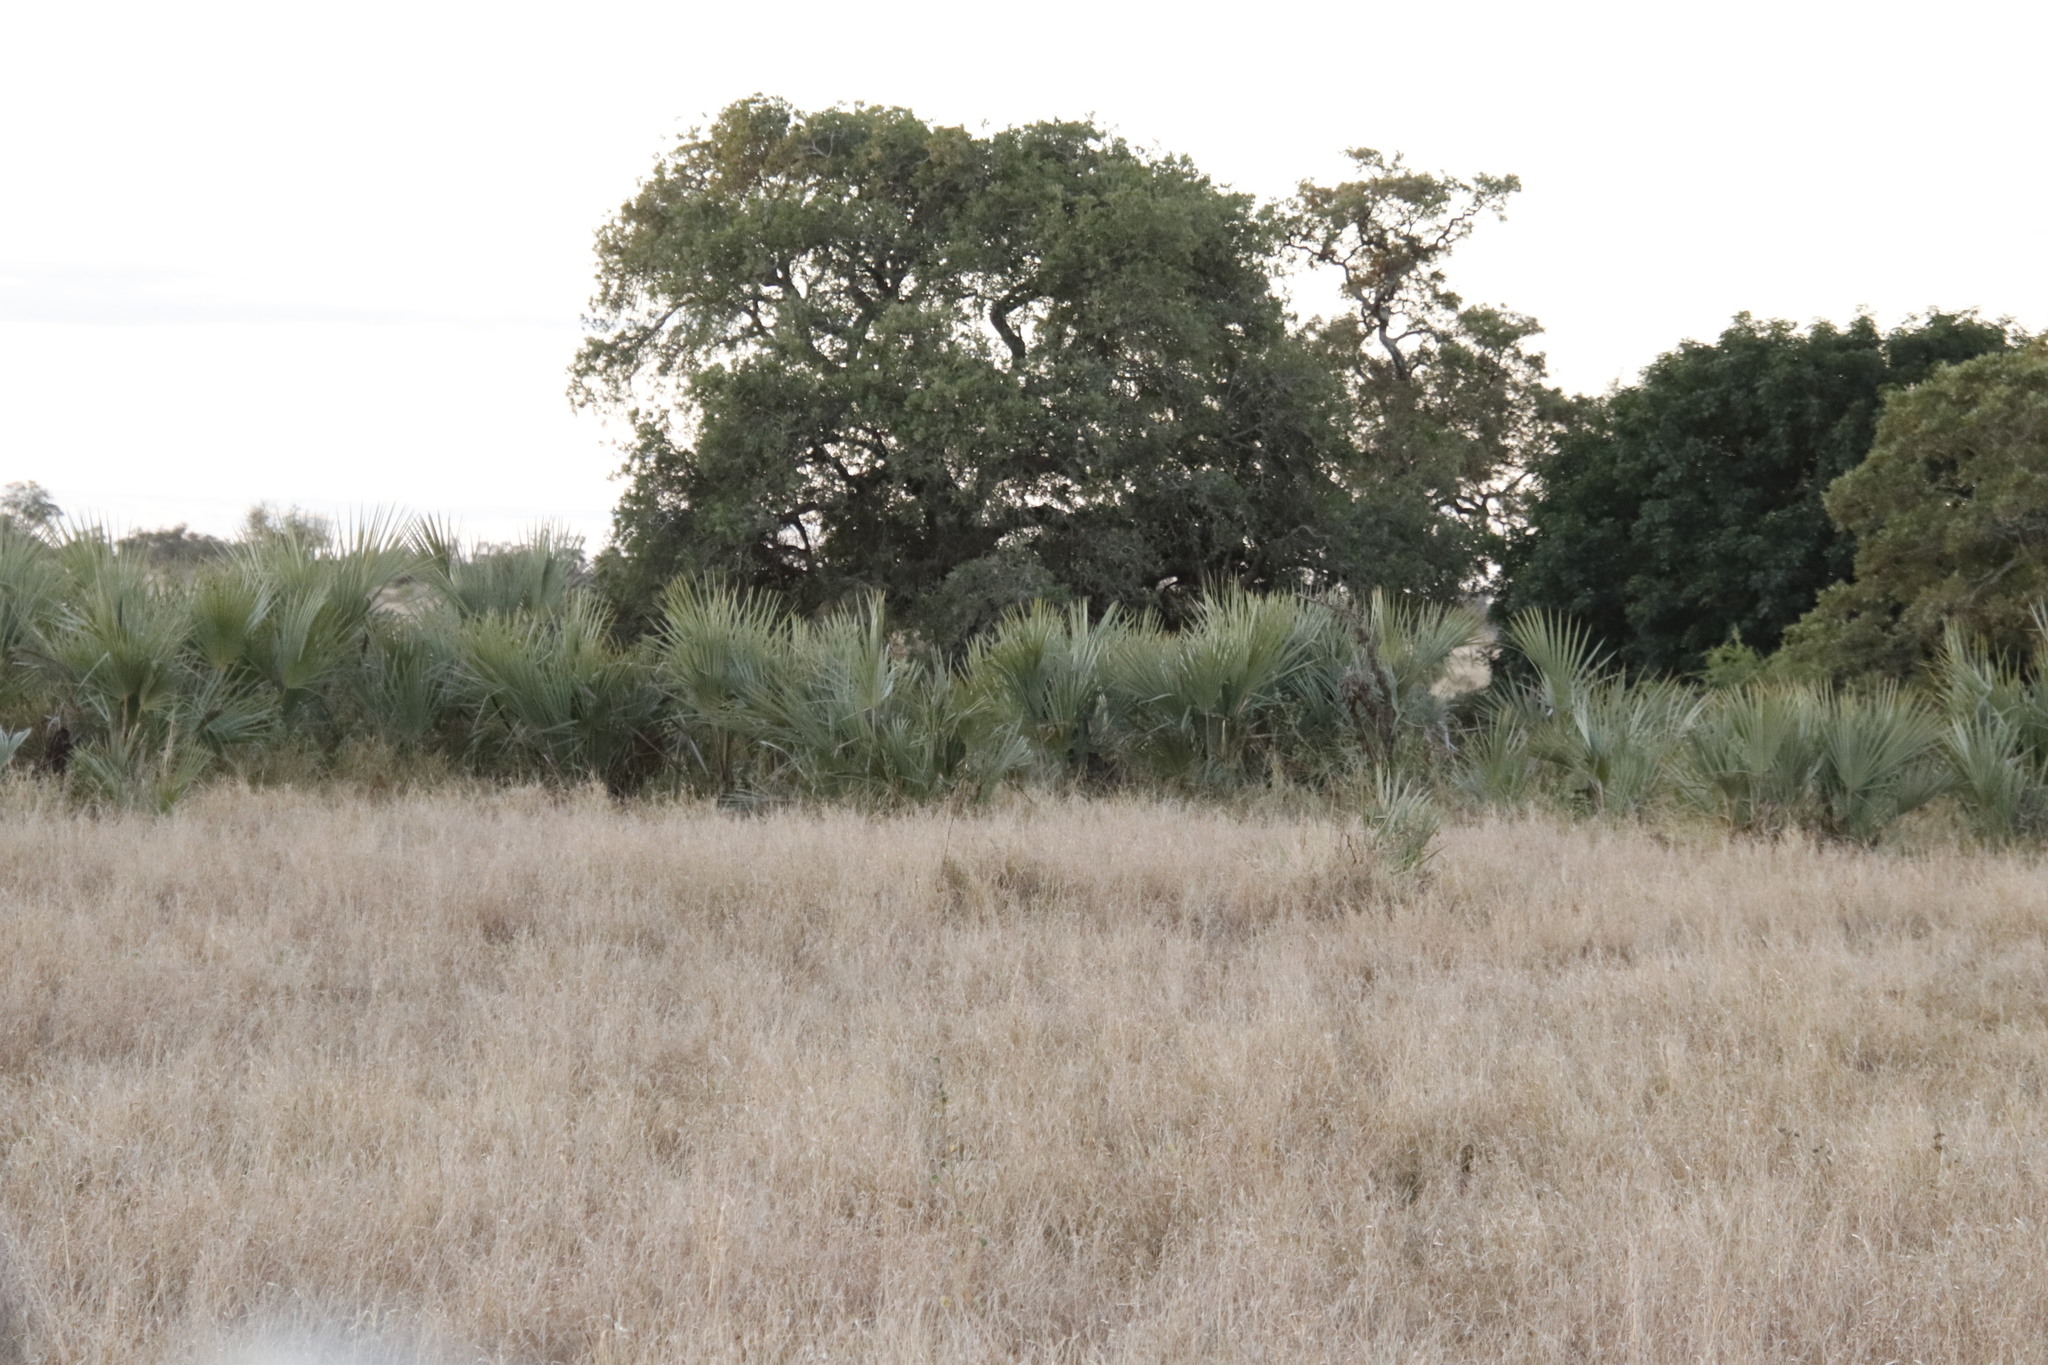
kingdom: Plantae
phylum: Tracheophyta
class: Liliopsida
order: Arecales
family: Arecaceae
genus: Hyphaene
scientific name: Hyphaene coriacea
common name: Ilala palm
